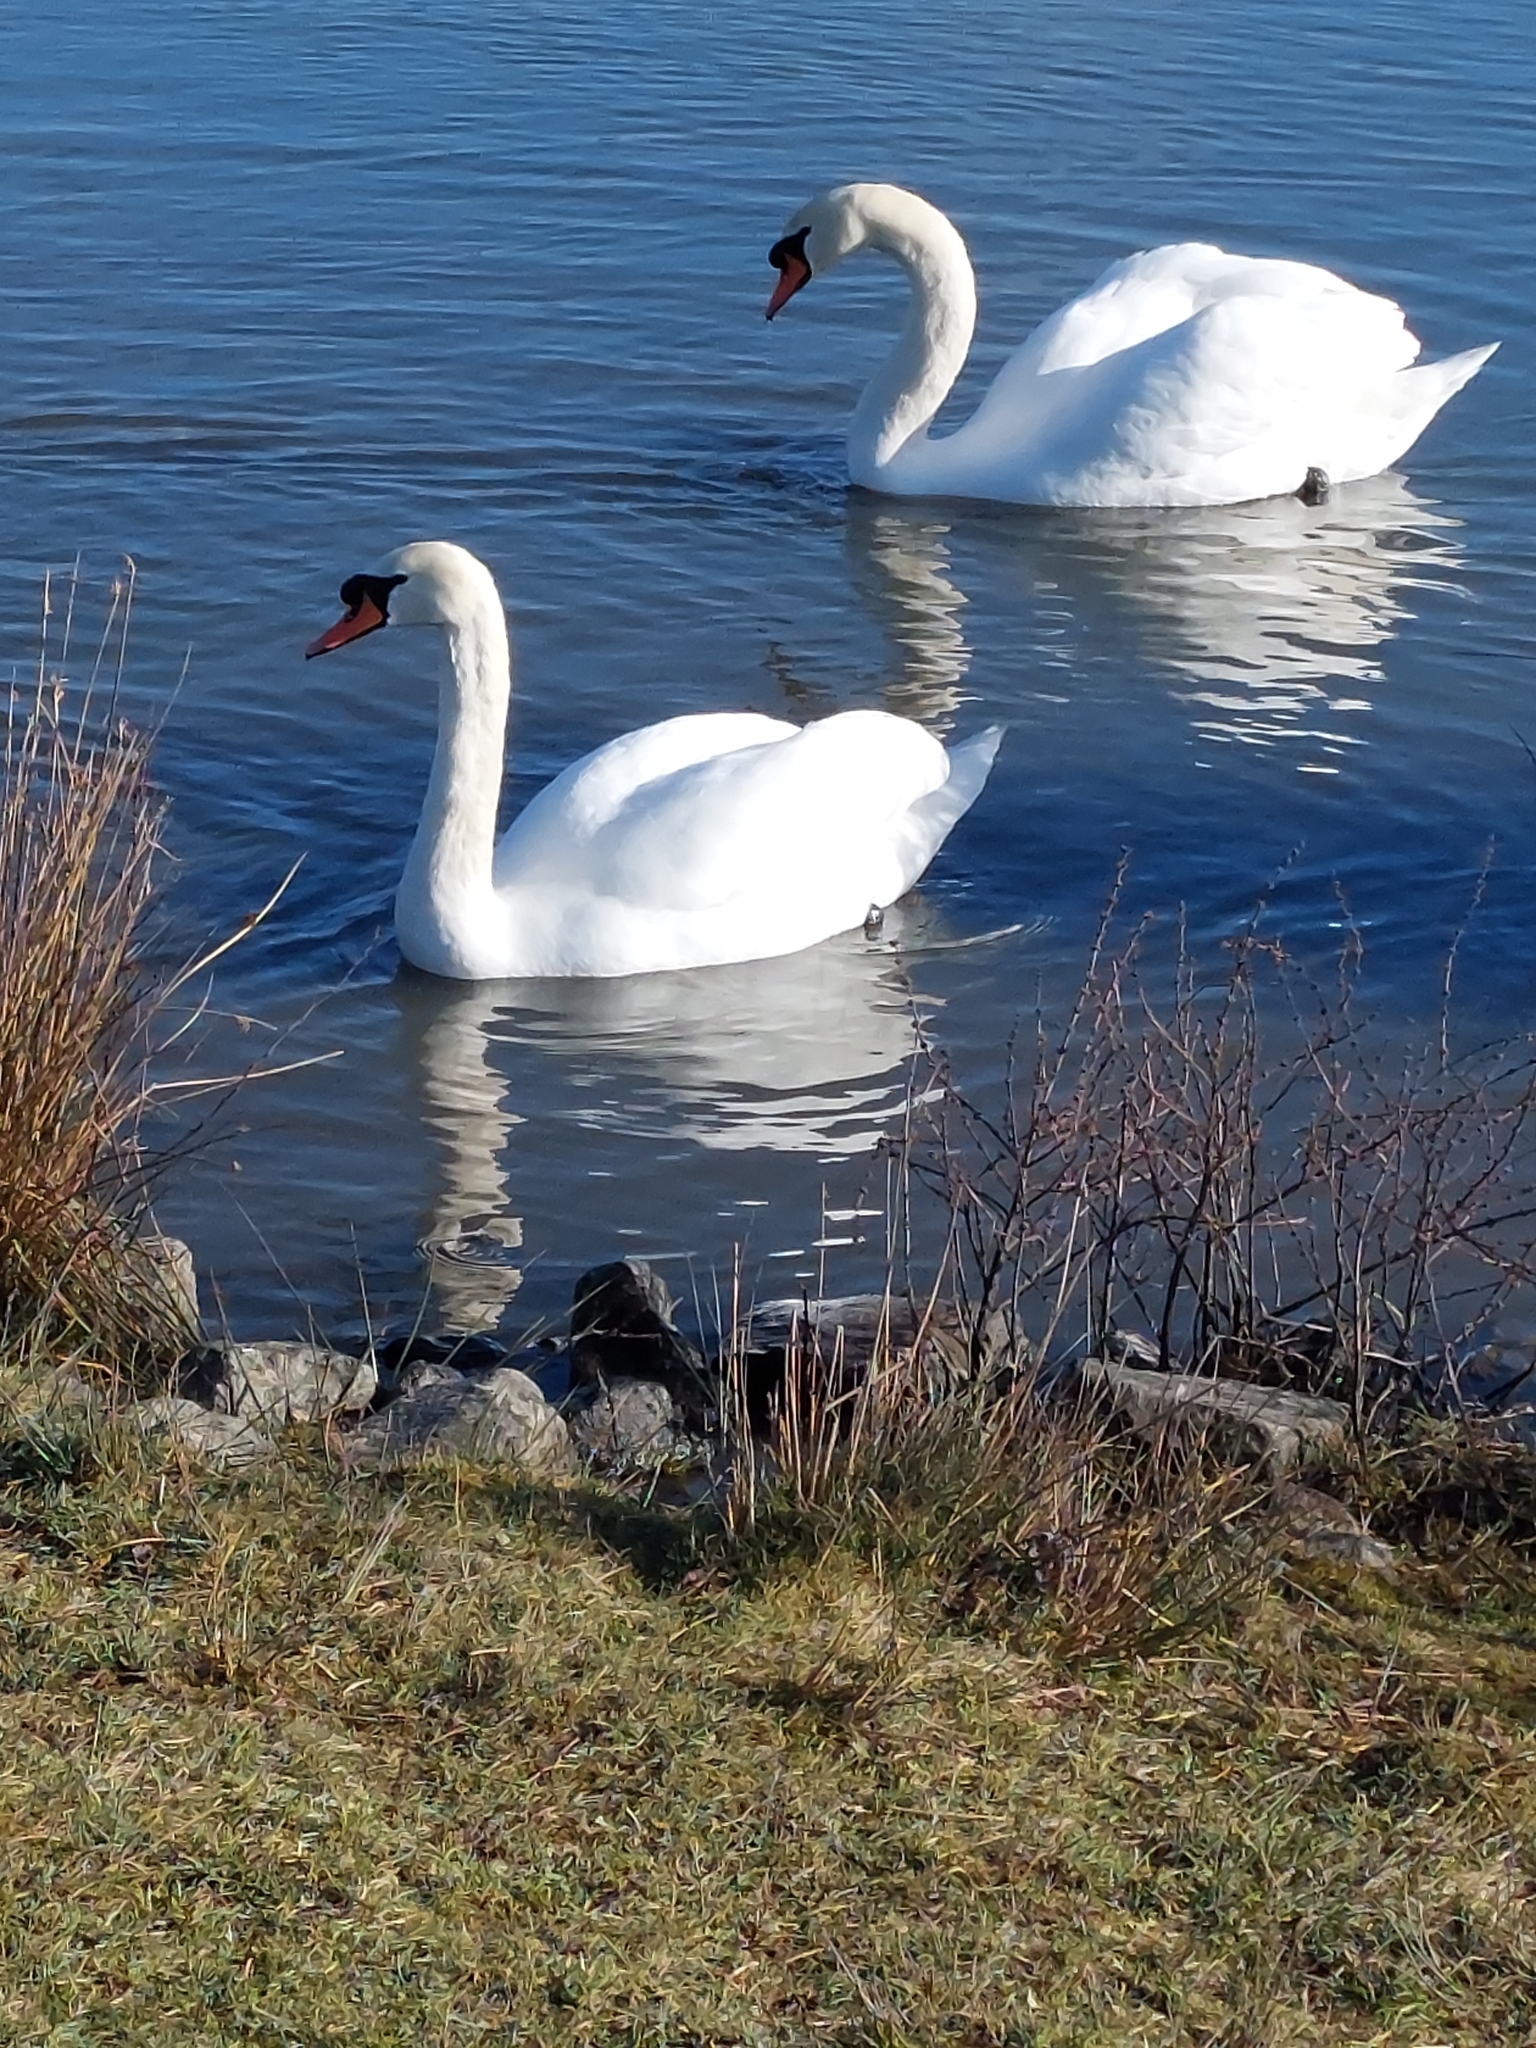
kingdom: Animalia
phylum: Chordata
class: Aves
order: Anseriformes
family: Anatidae
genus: Cygnus
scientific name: Cygnus olor
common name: Mute swan
